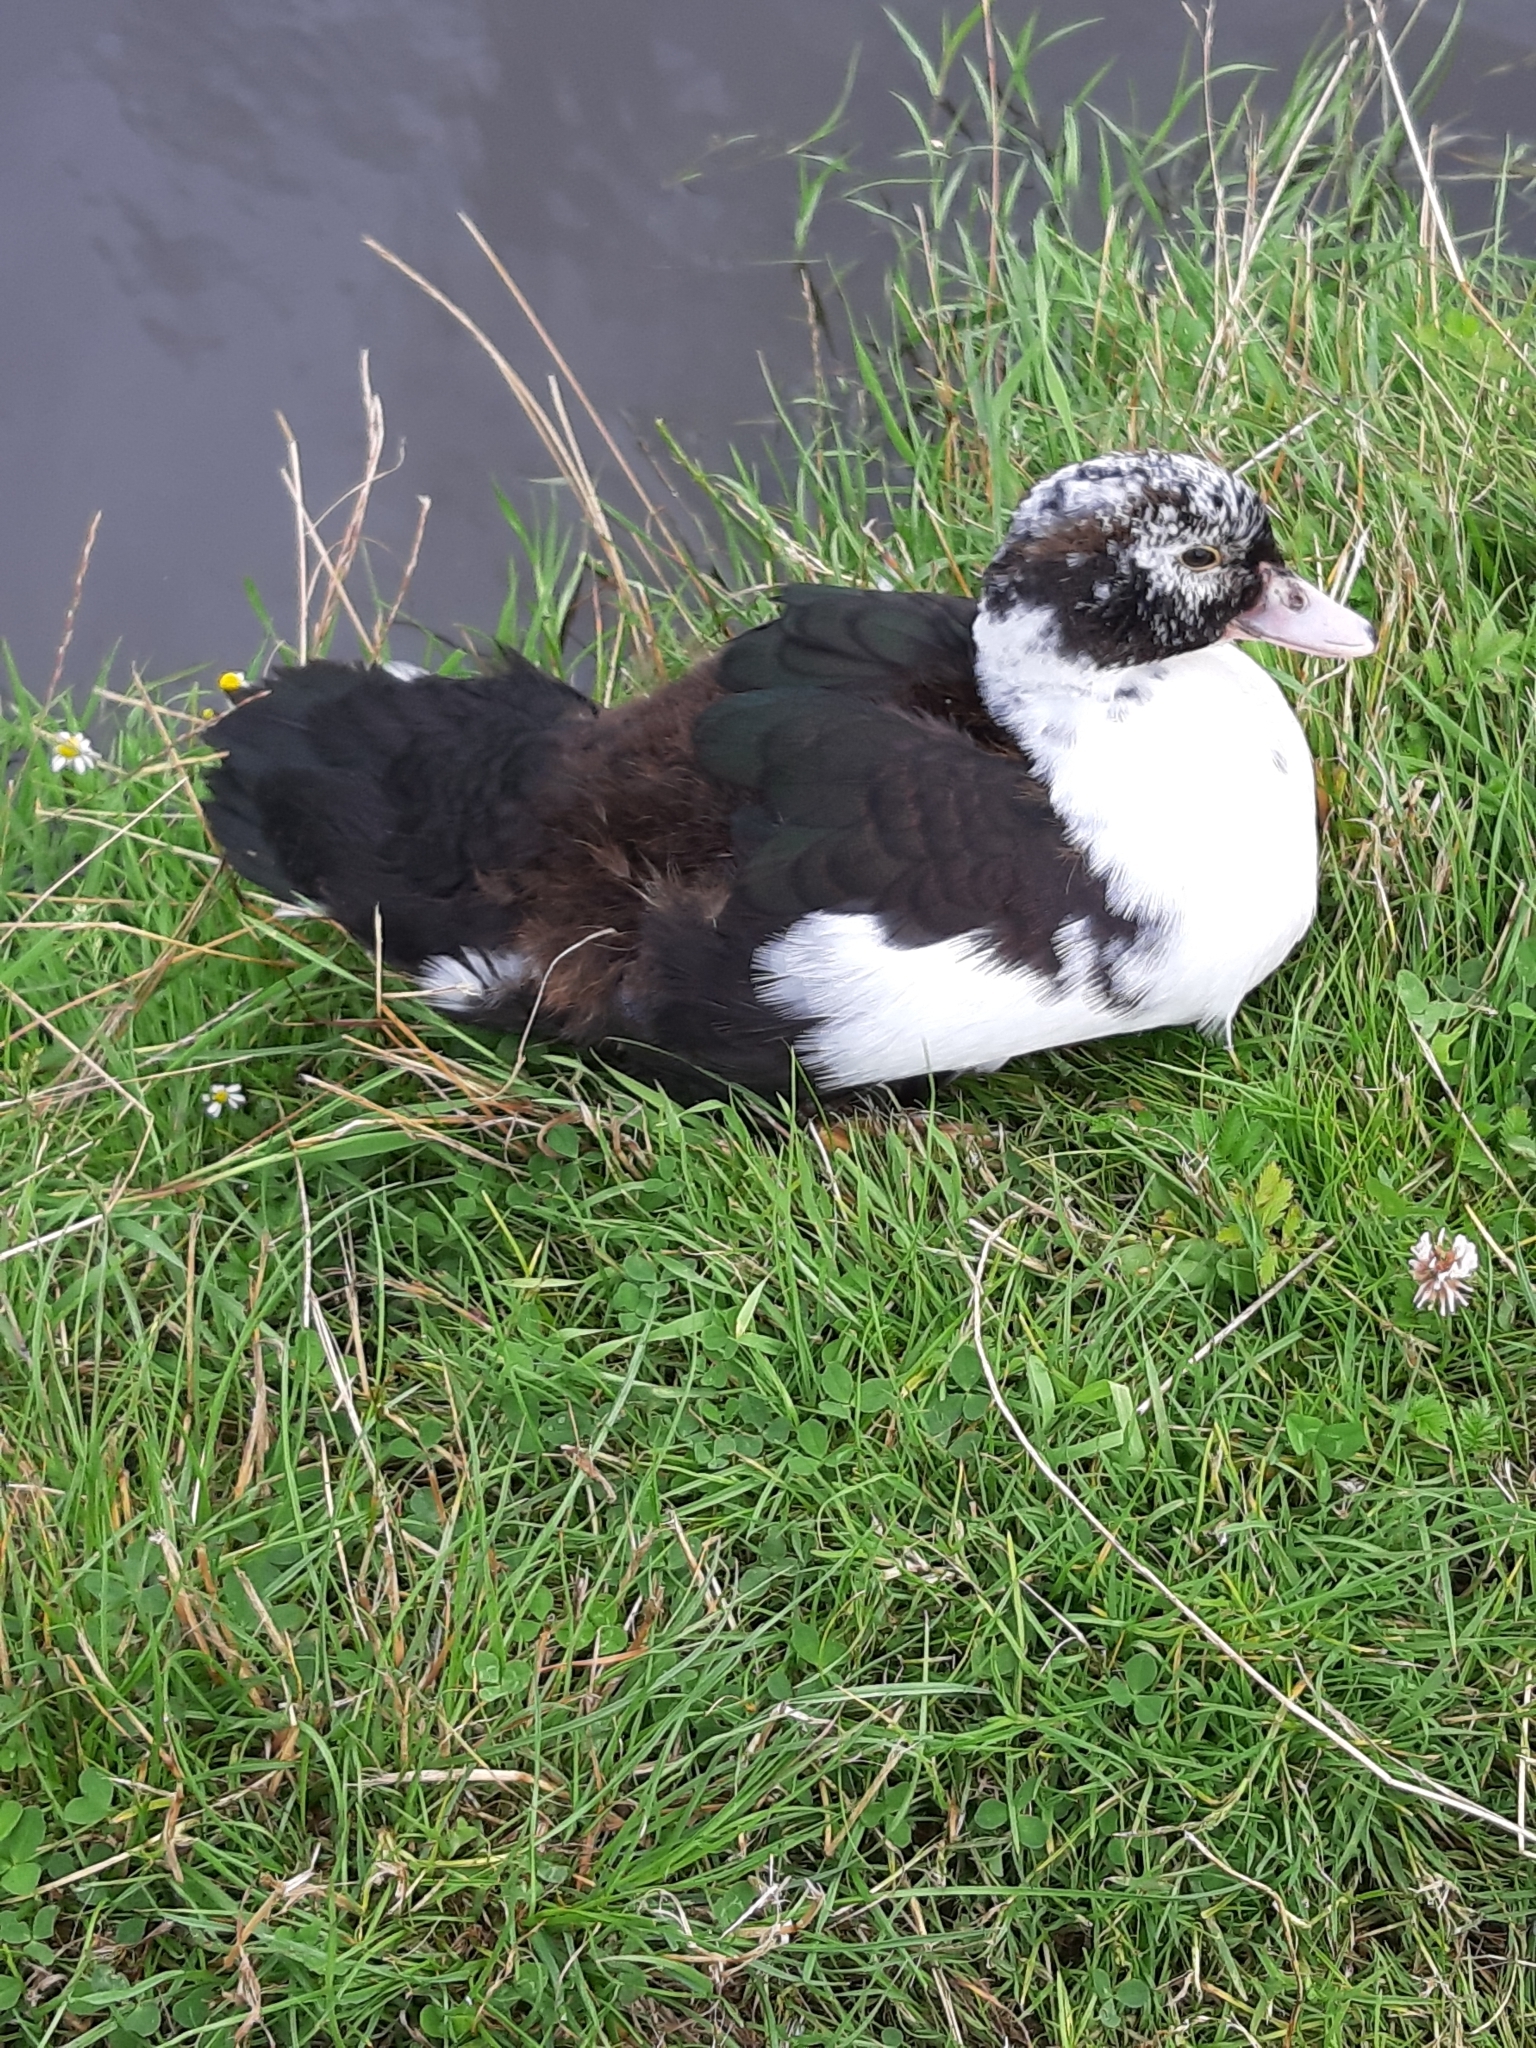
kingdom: Animalia
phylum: Chordata
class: Aves
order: Anseriformes
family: Anatidae
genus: Cairina
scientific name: Cairina moschata
